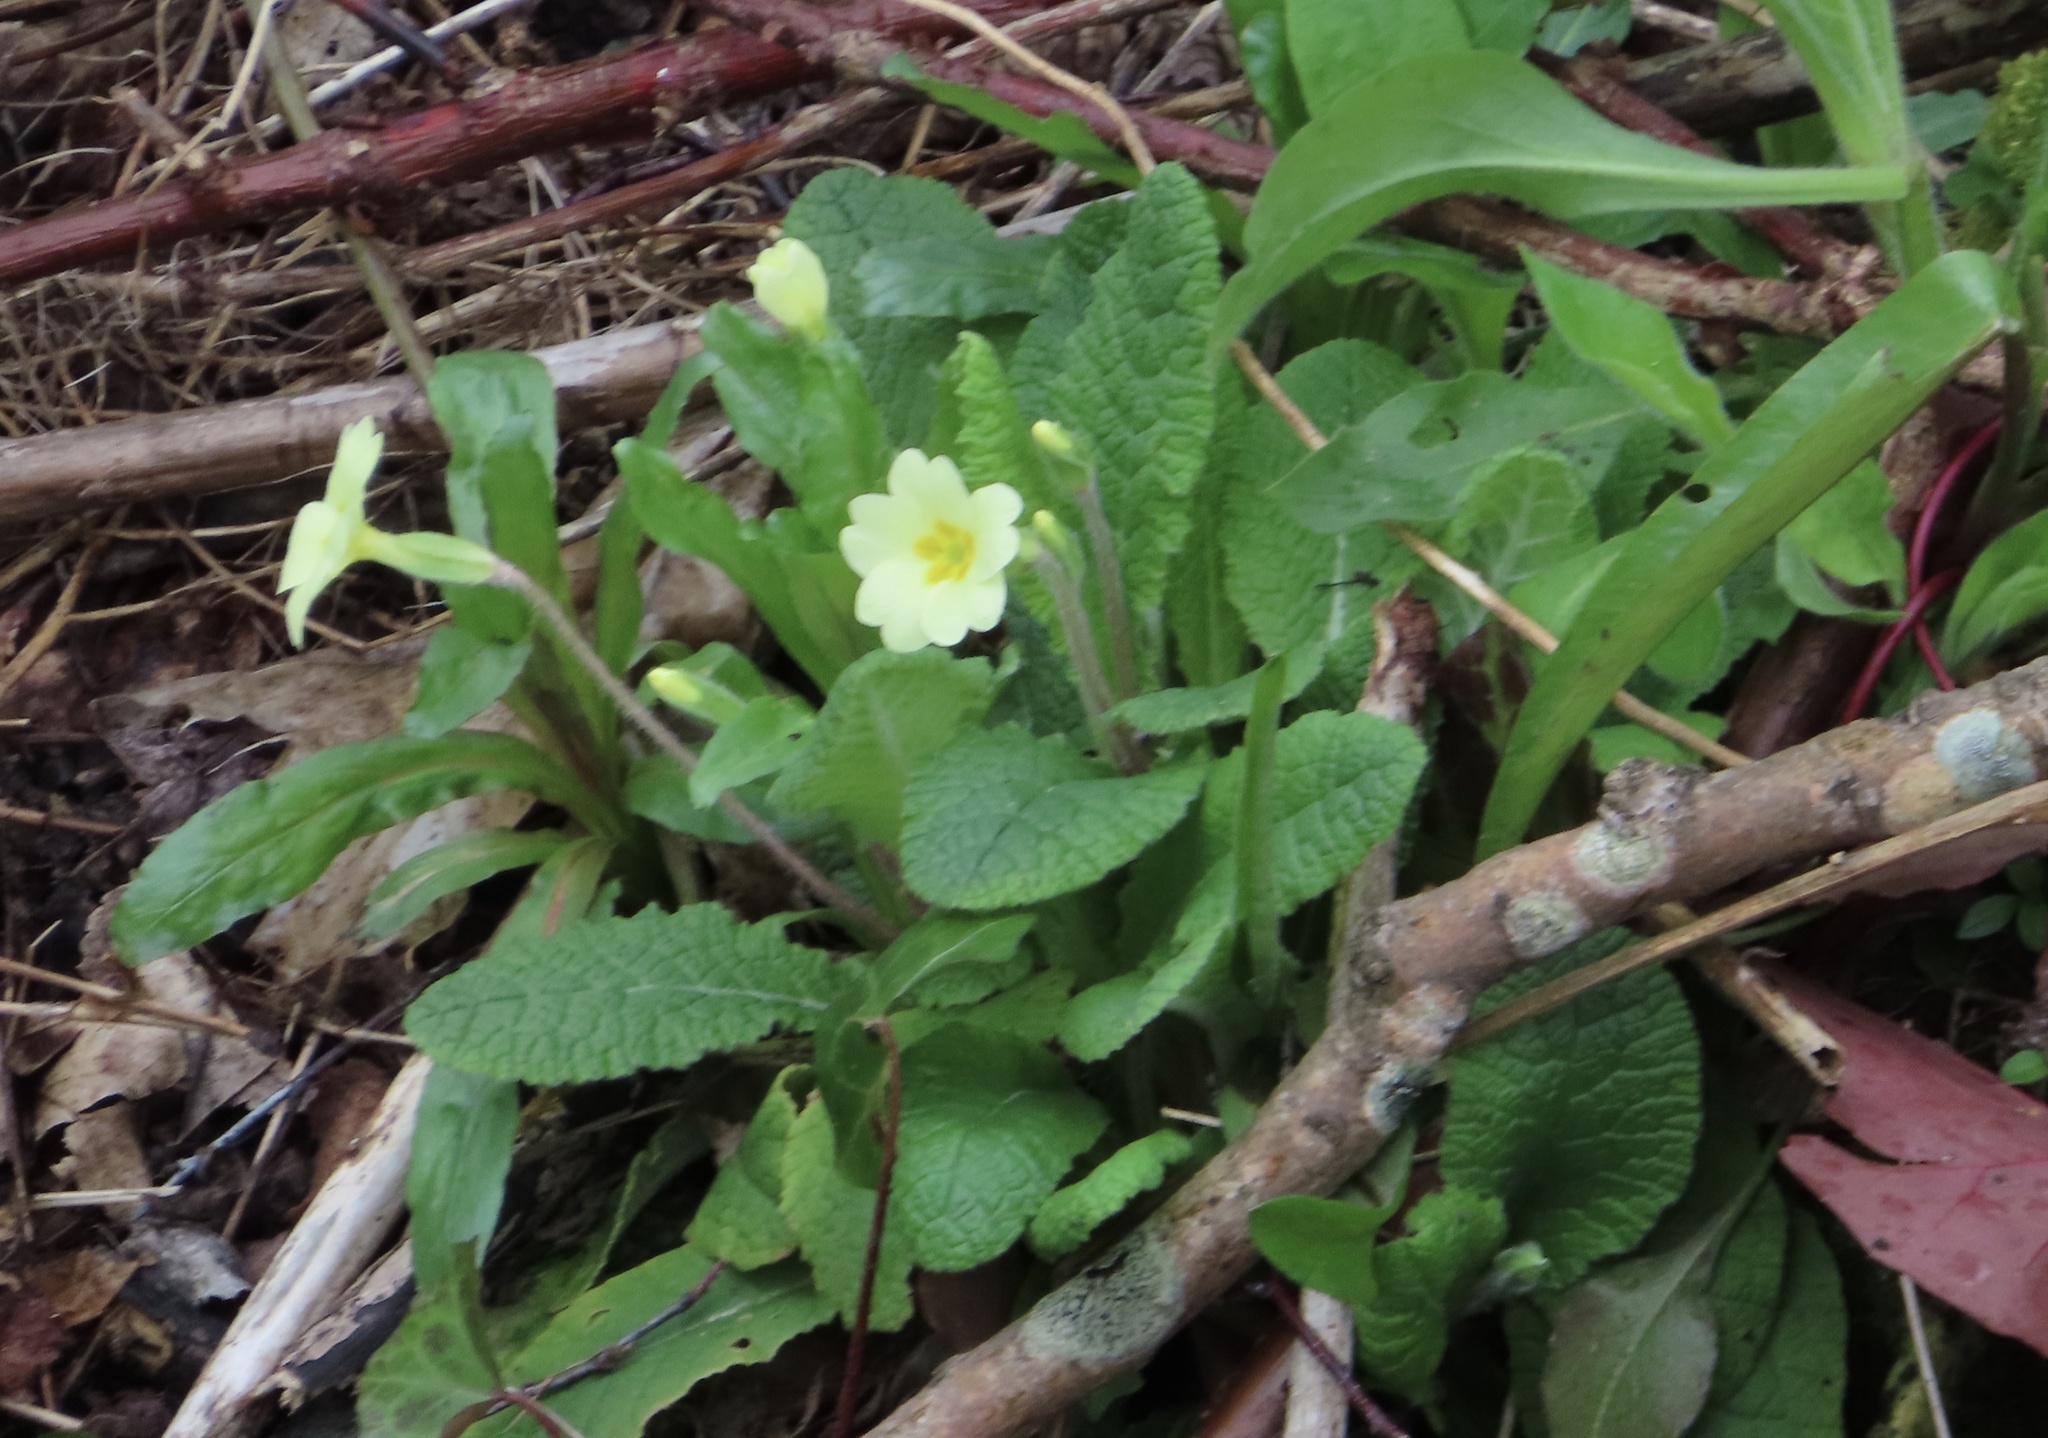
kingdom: Plantae
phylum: Tracheophyta
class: Magnoliopsida
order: Ericales
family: Primulaceae
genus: Primula
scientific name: Primula vulgaris
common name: Primrose
